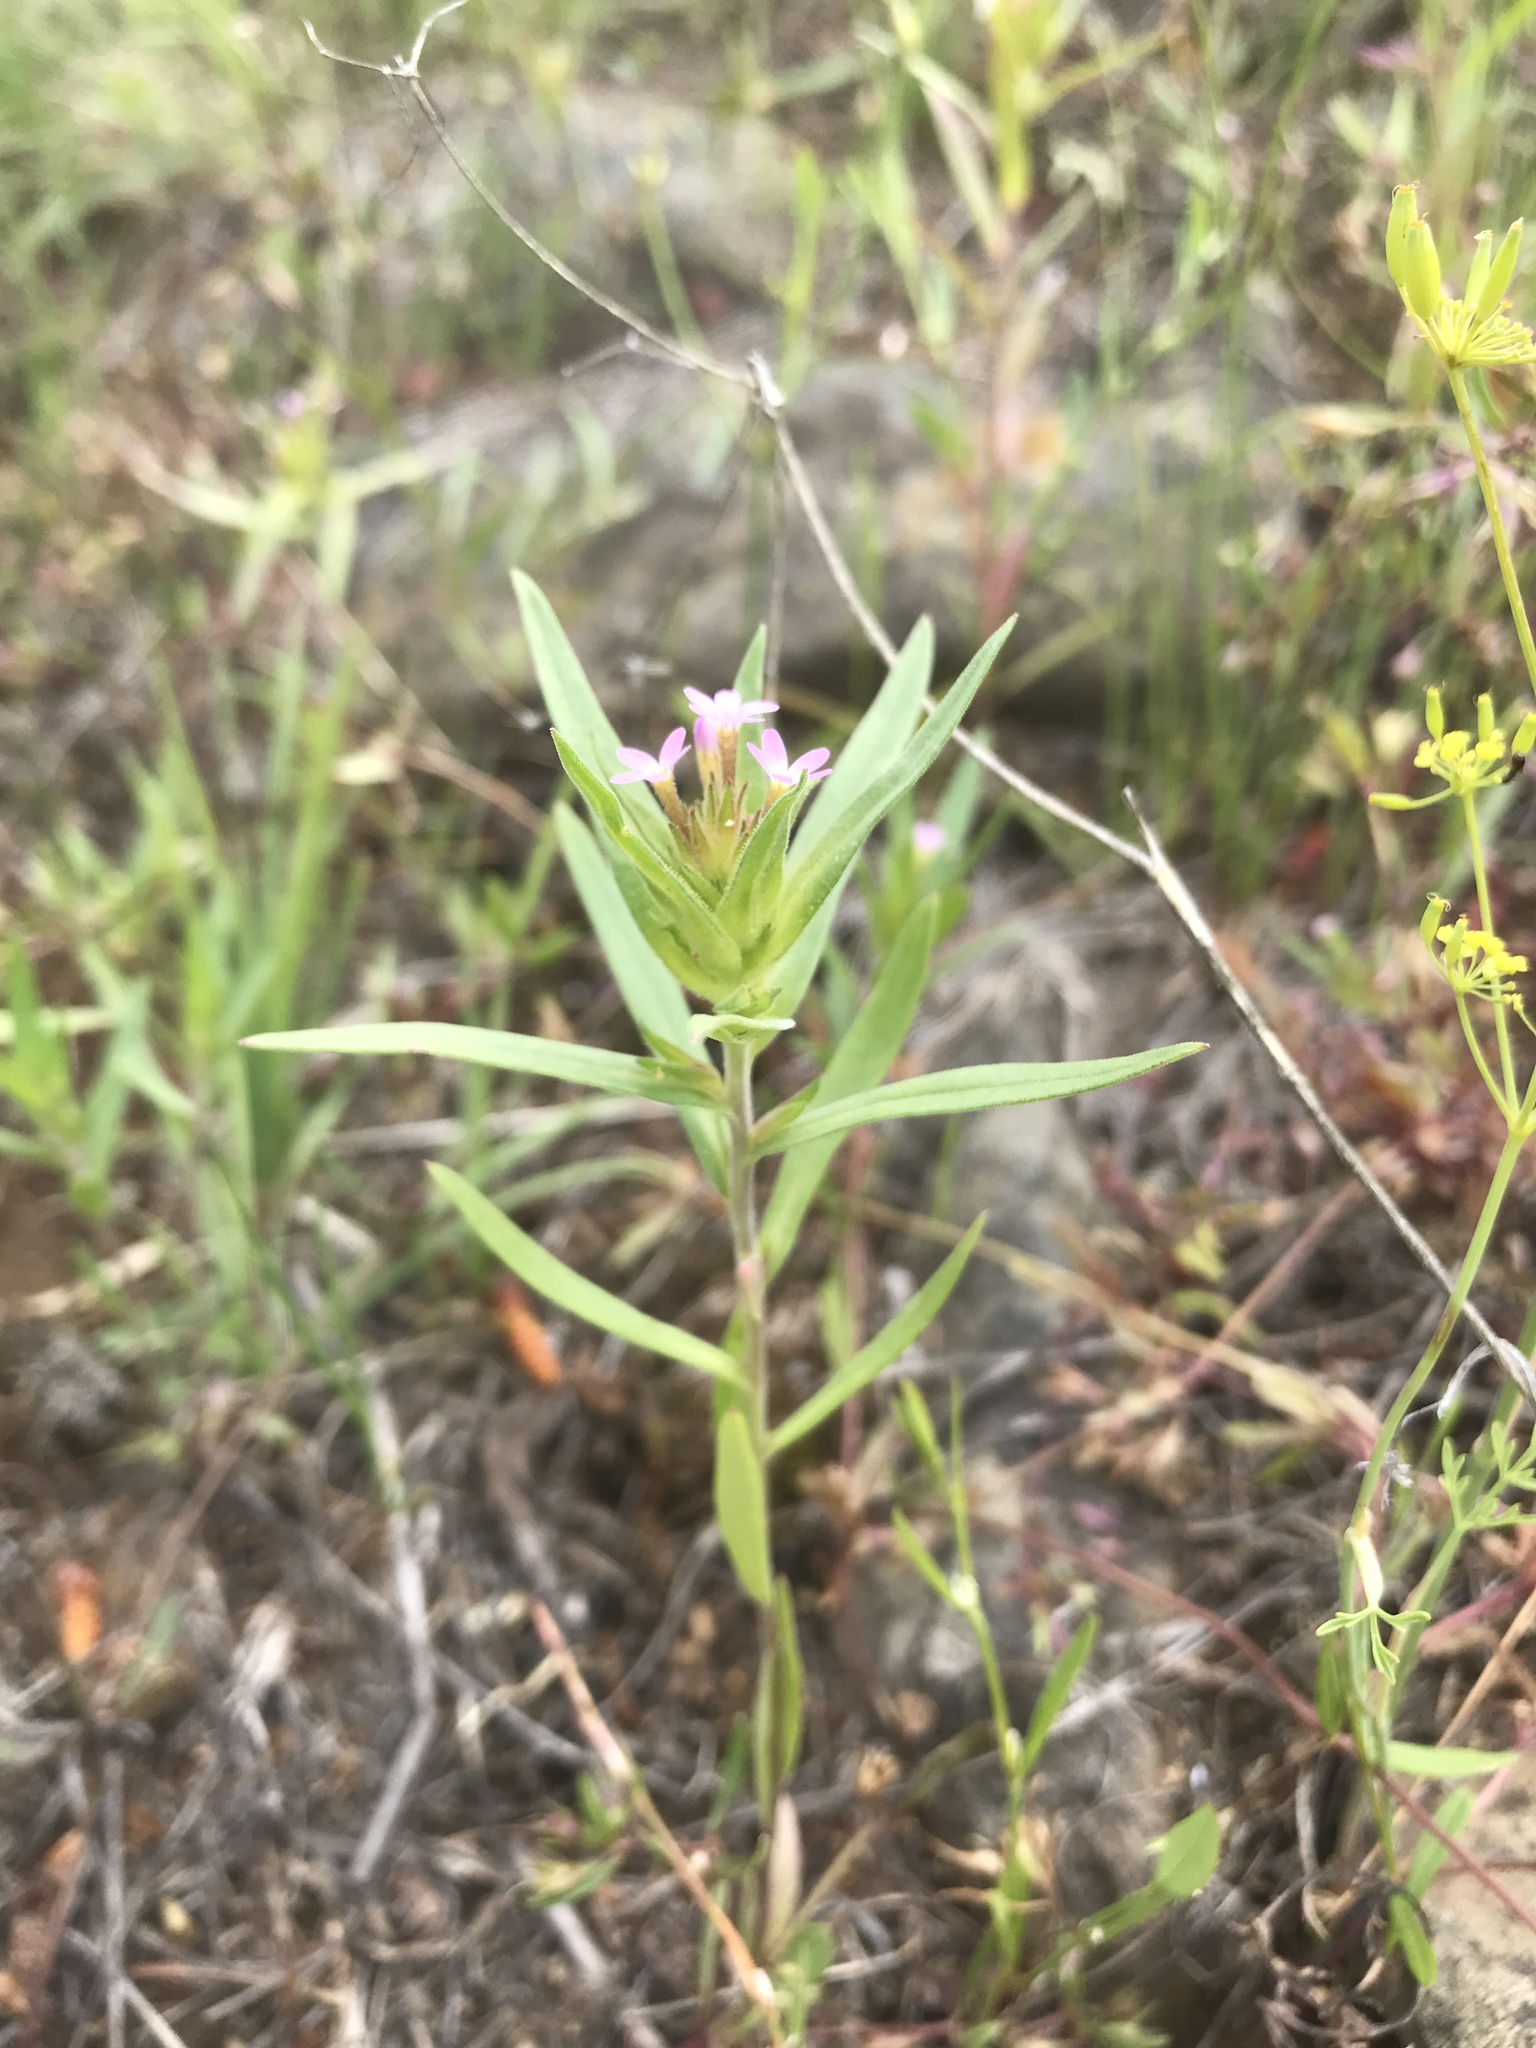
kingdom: Plantae
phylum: Tracheophyta
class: Magnoliopsida
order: Ericales
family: Polemoniaceae
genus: Collomia
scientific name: Collomia linearis
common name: Tiny trumpet
